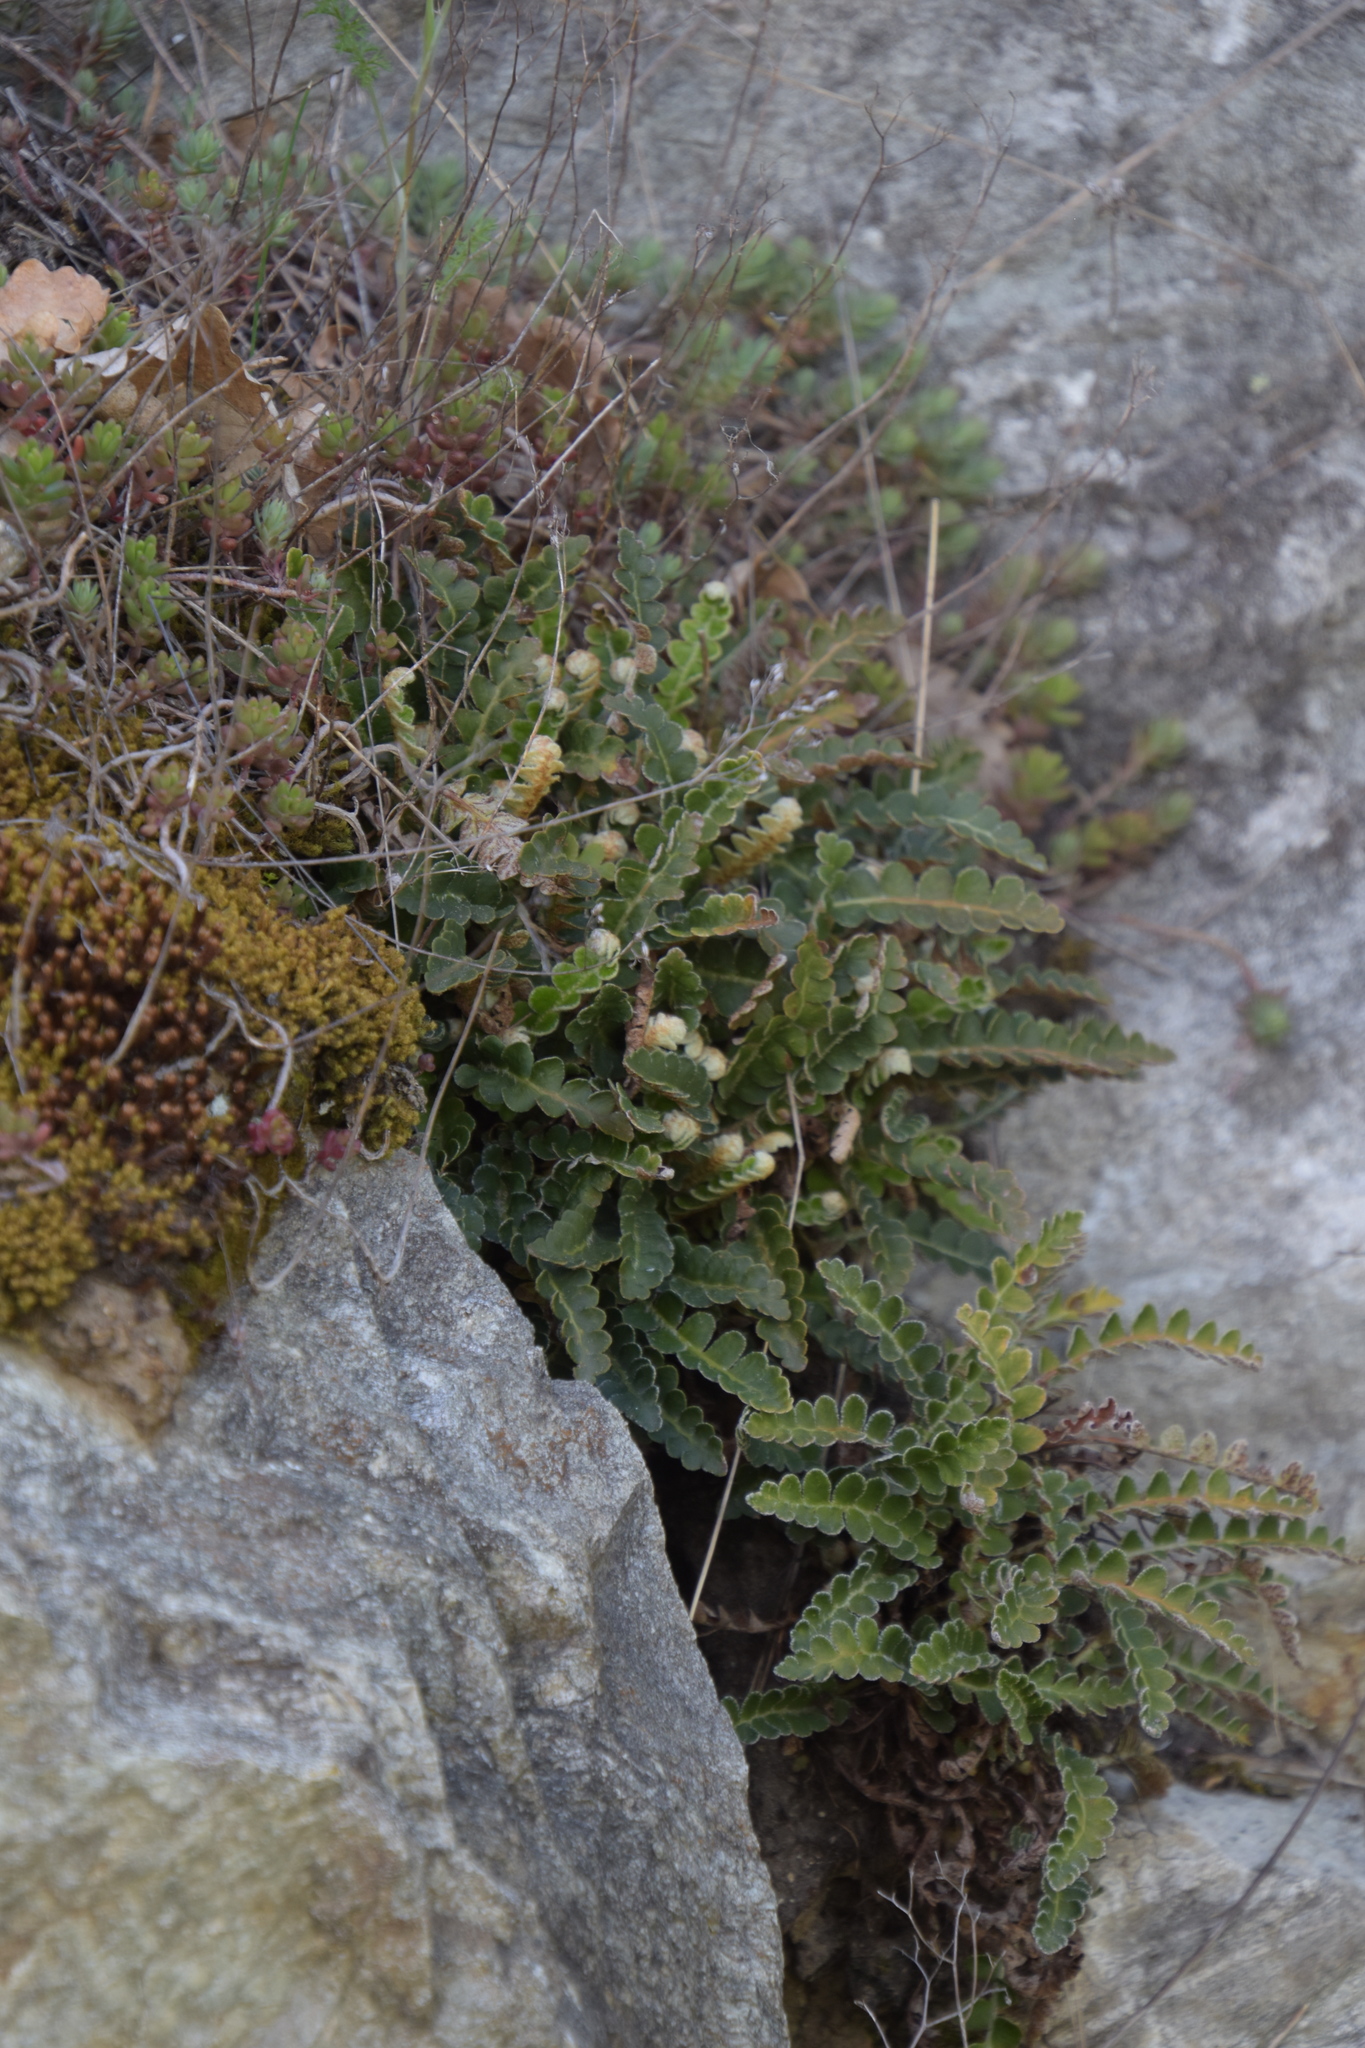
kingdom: Plantae
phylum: Tracheophyta
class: Polypodiopsida
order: Polypodiales
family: Aspleniaceae
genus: Asplenium
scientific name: Asplenium ceterach
